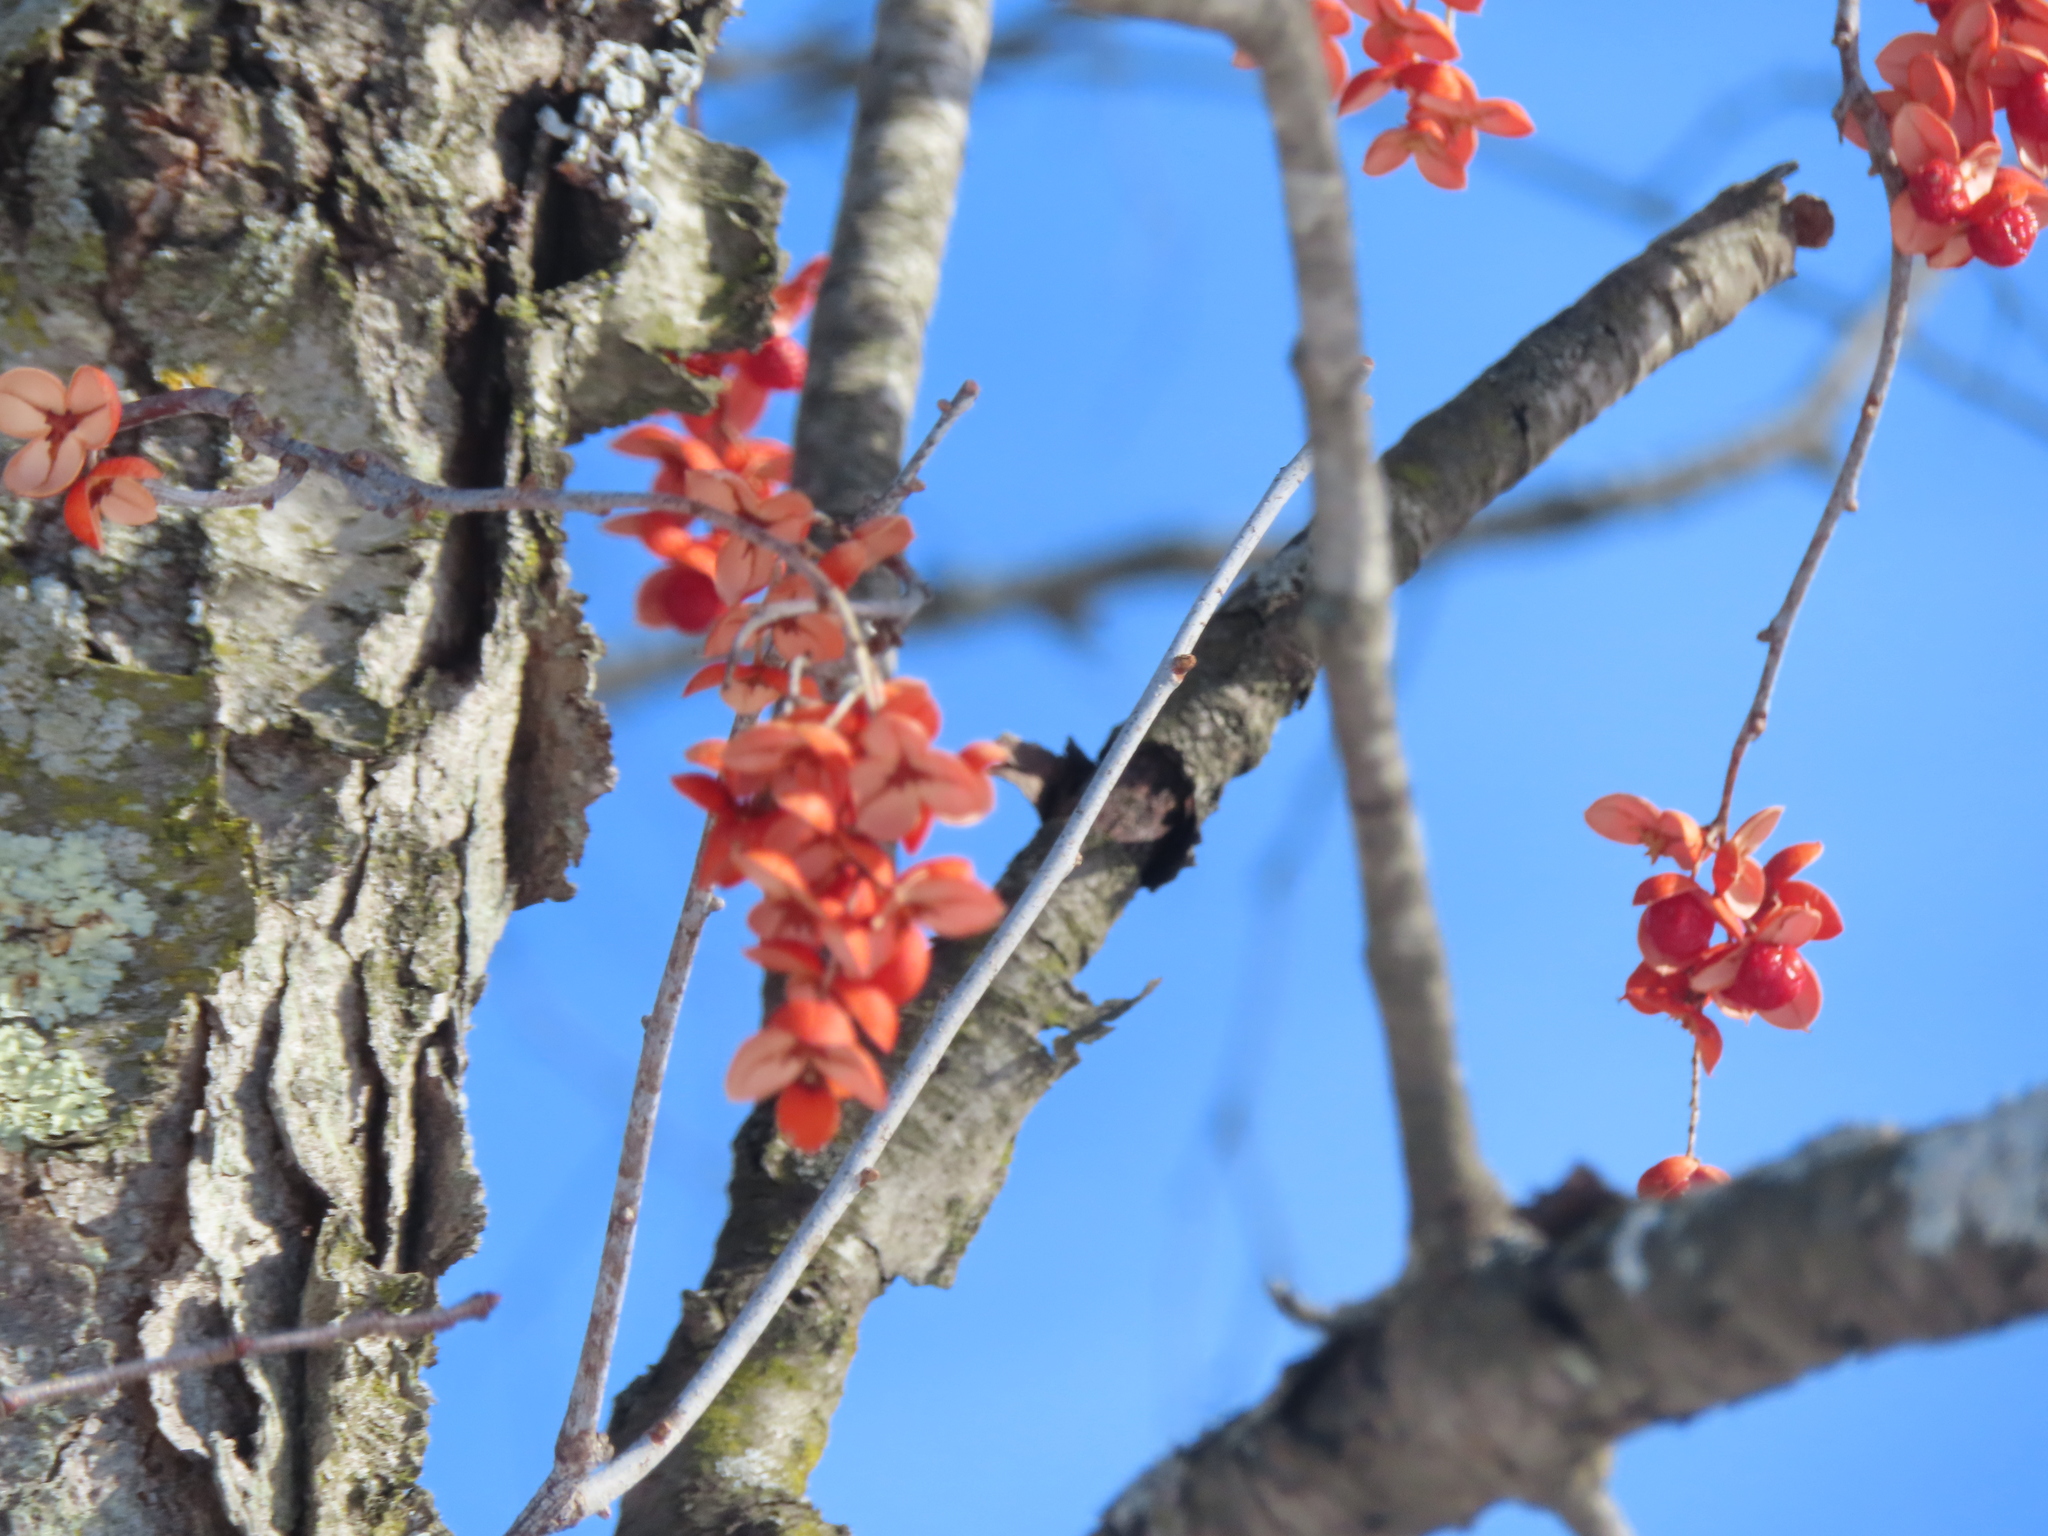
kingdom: Plantae
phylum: Tracheophyta
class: Magnoliopsida
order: Celastrales
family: Celastraceae
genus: Celastrus
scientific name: Celastrus scandens
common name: American bittersweet
